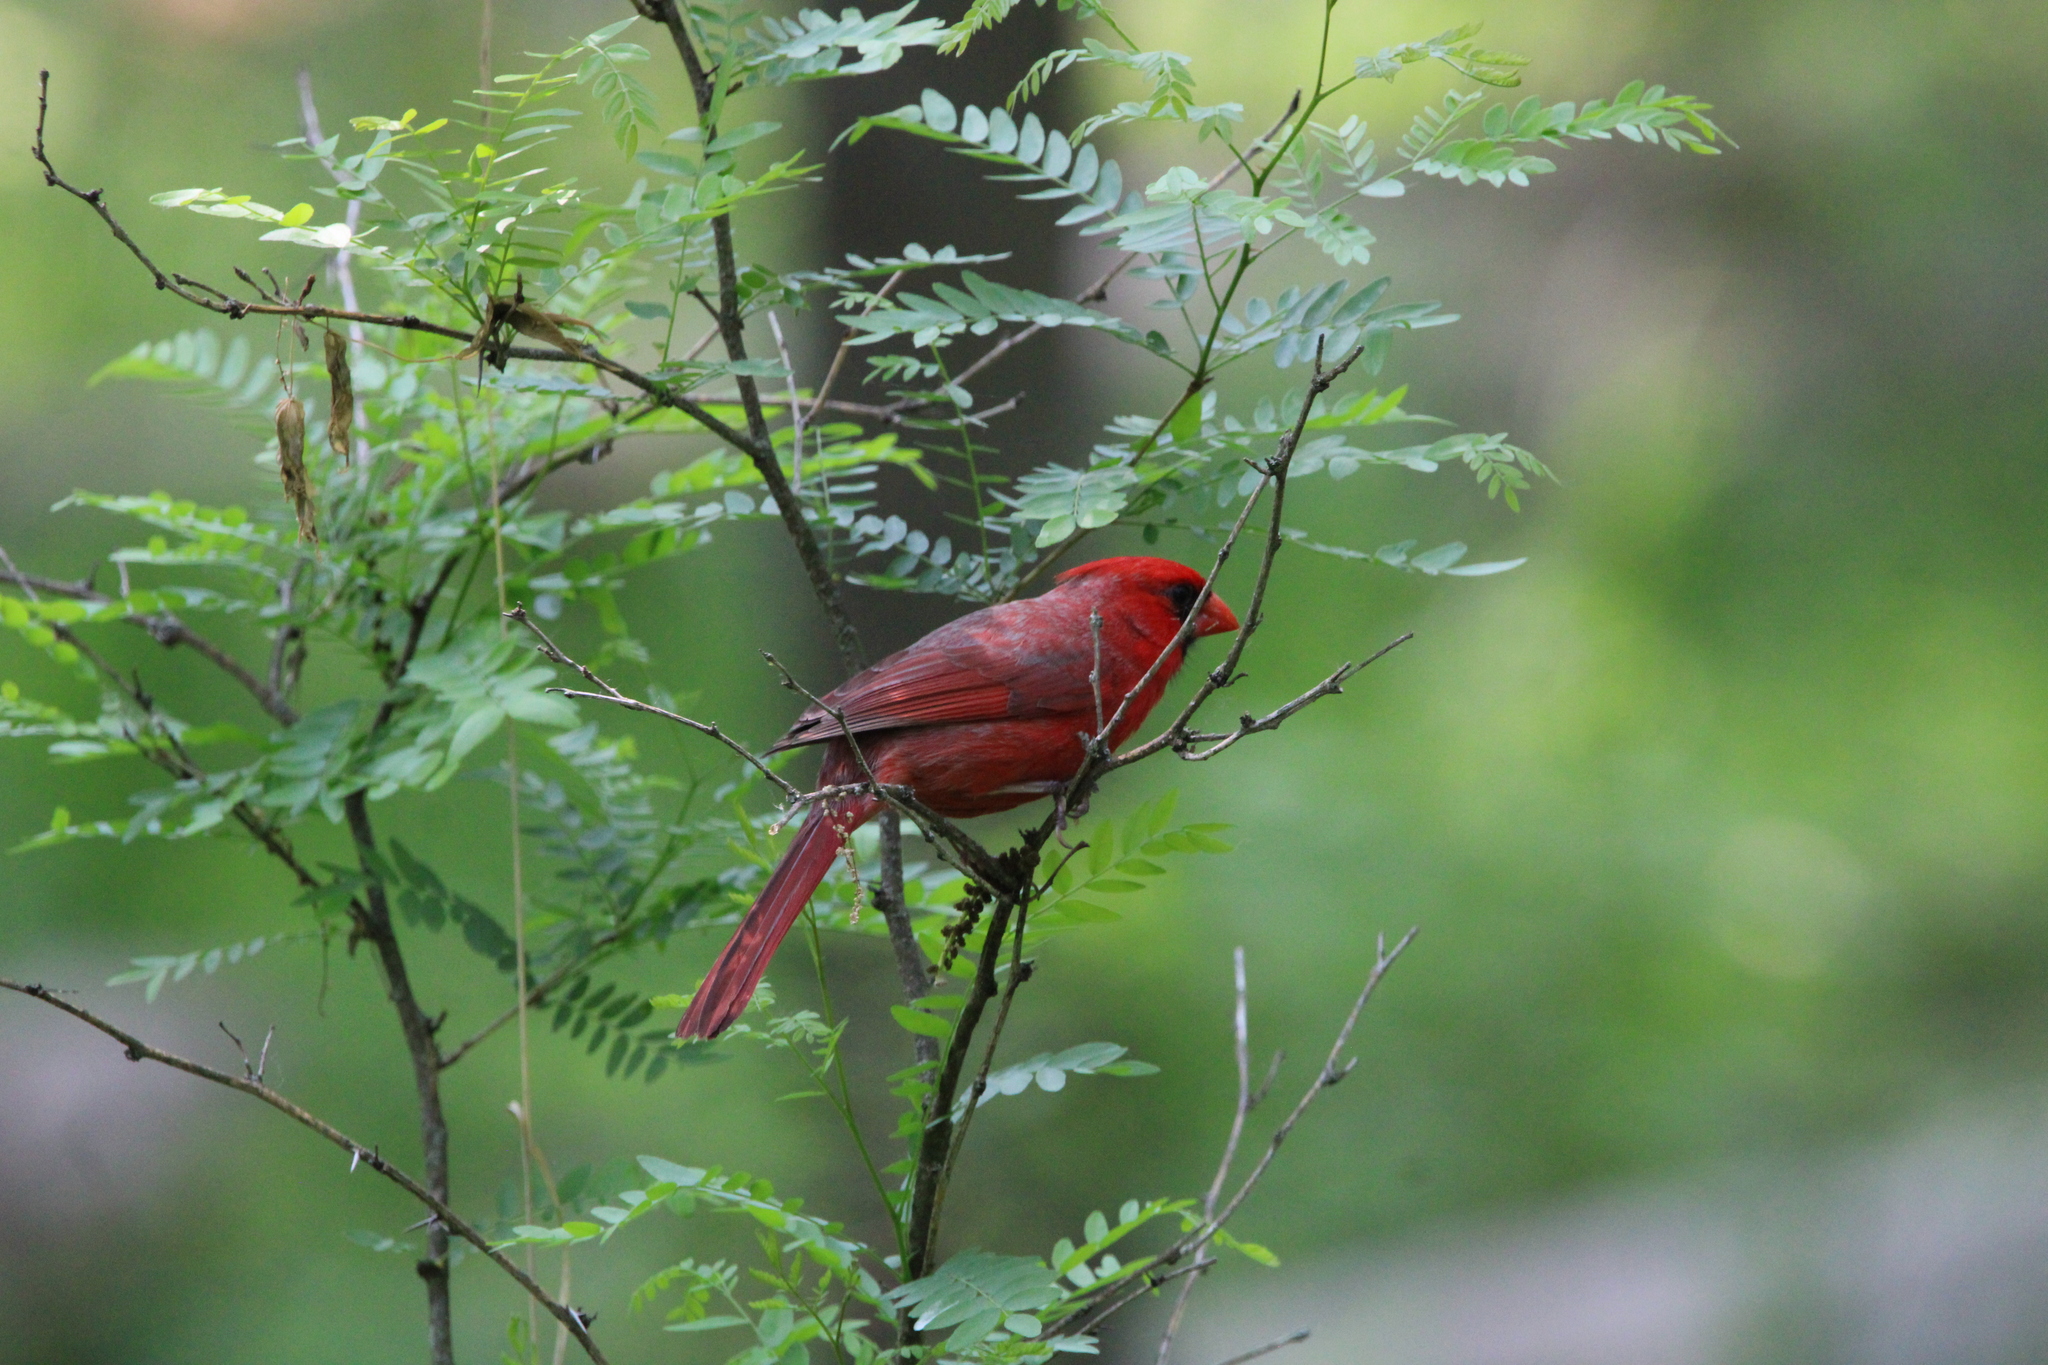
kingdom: Animalia
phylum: Chordata
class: Aves
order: Passeriformes
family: Cardinalidae
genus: Cardinalis
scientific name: Cardinalis cardinalis
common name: Northern cardinal
